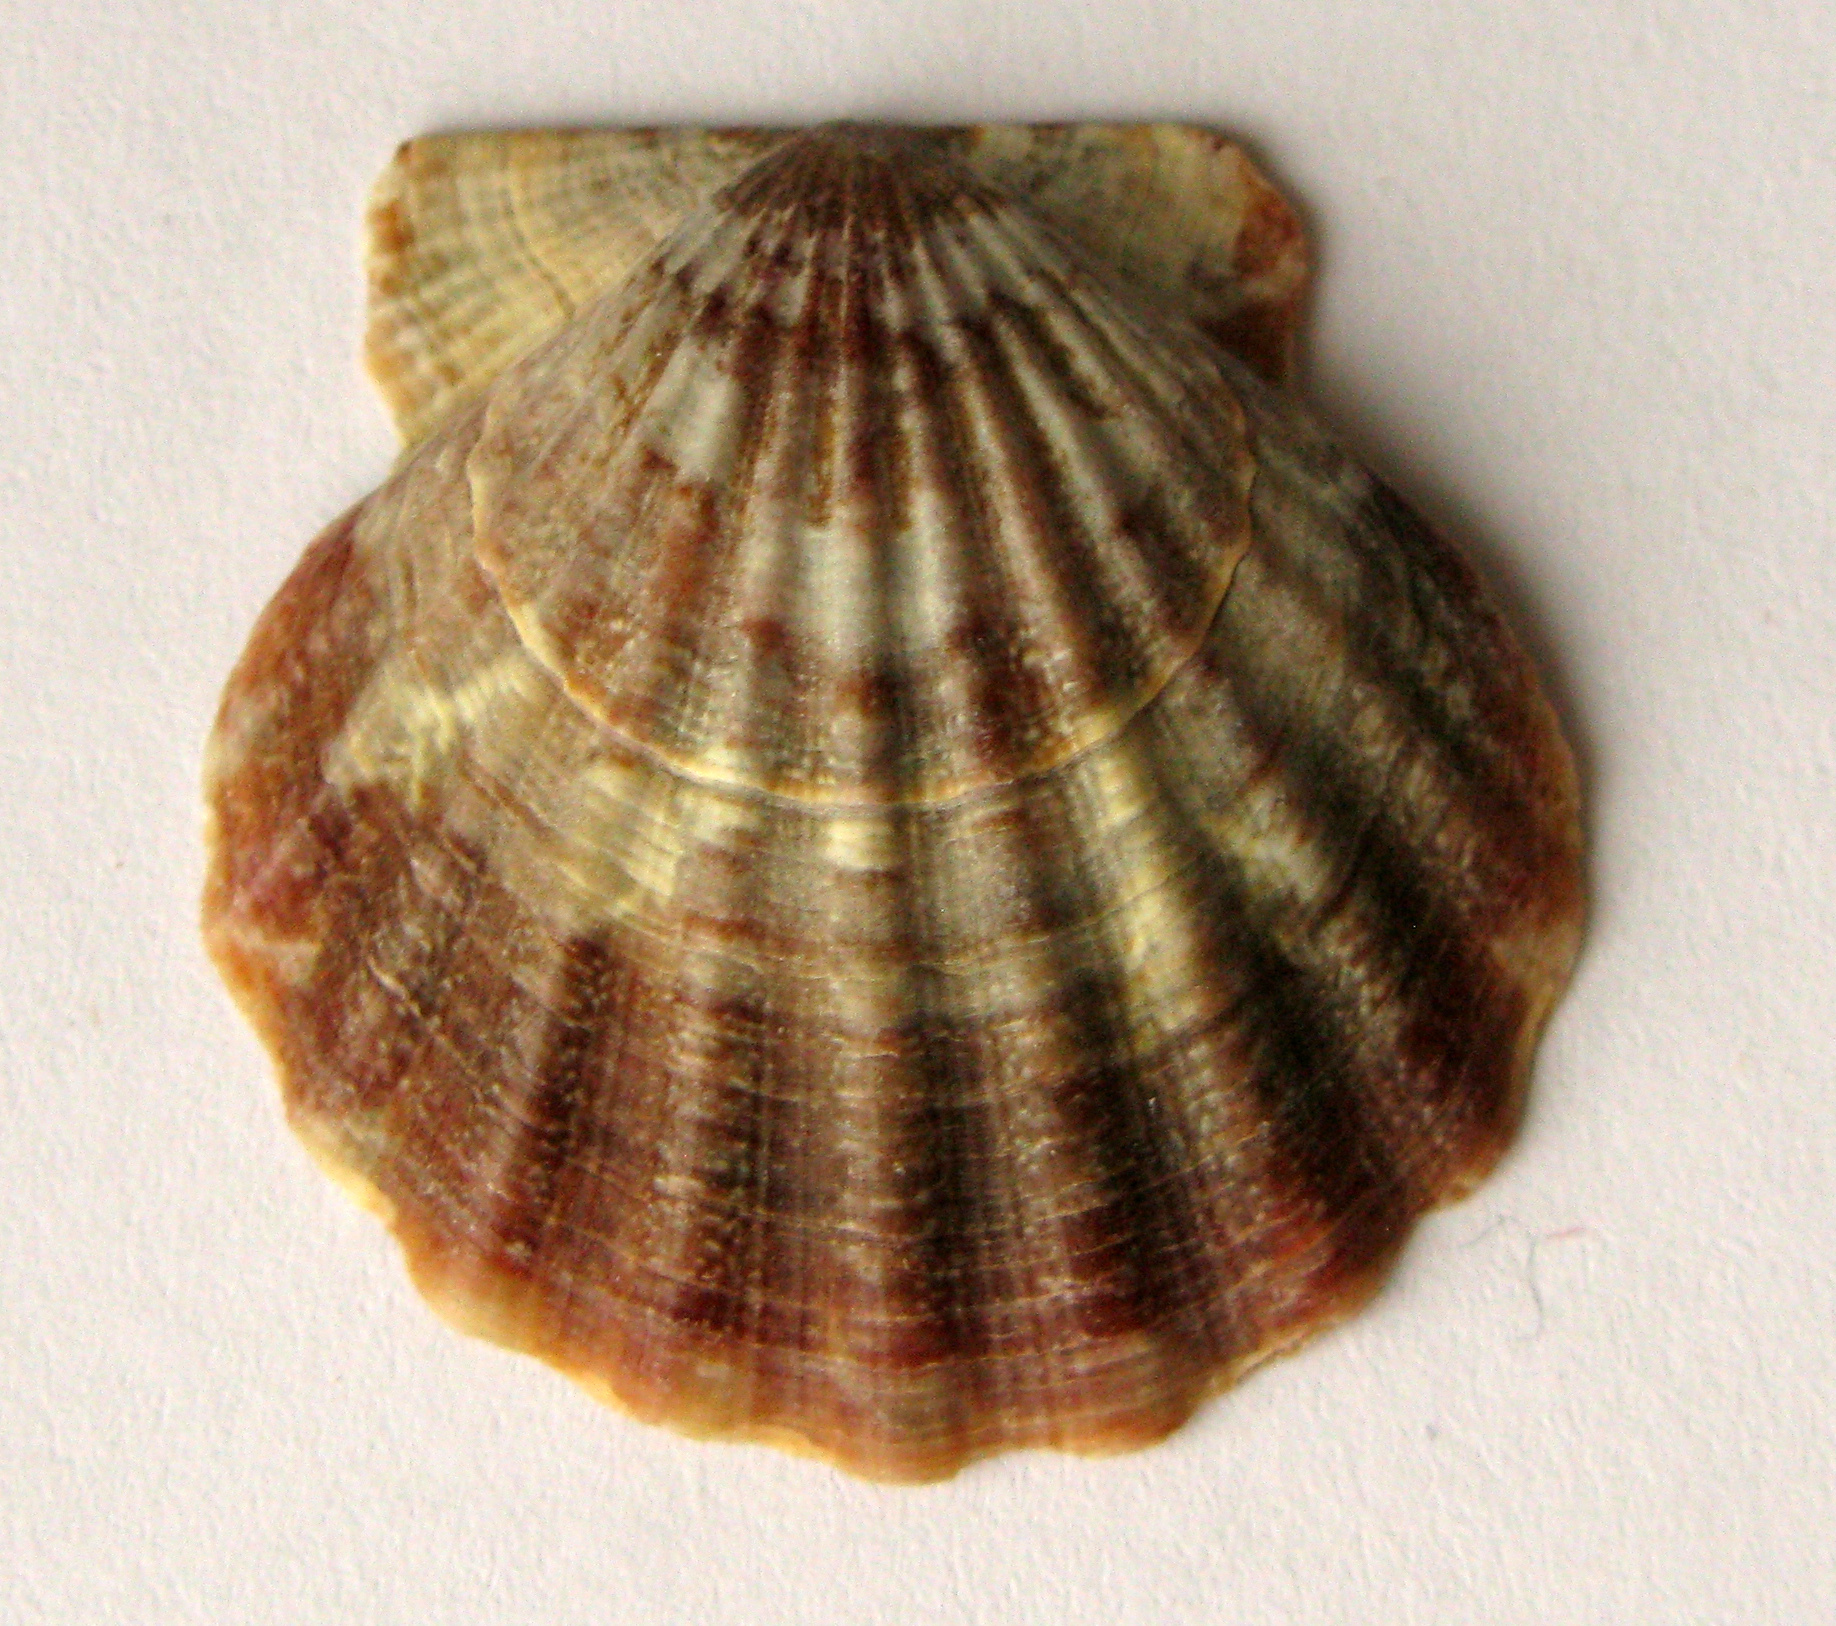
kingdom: Animalia
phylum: Mollusca
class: Bivalvia
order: Pectinida
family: Pectinidae
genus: Flexopecten
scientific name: Flexopecten glaber
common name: Smooth scallop
